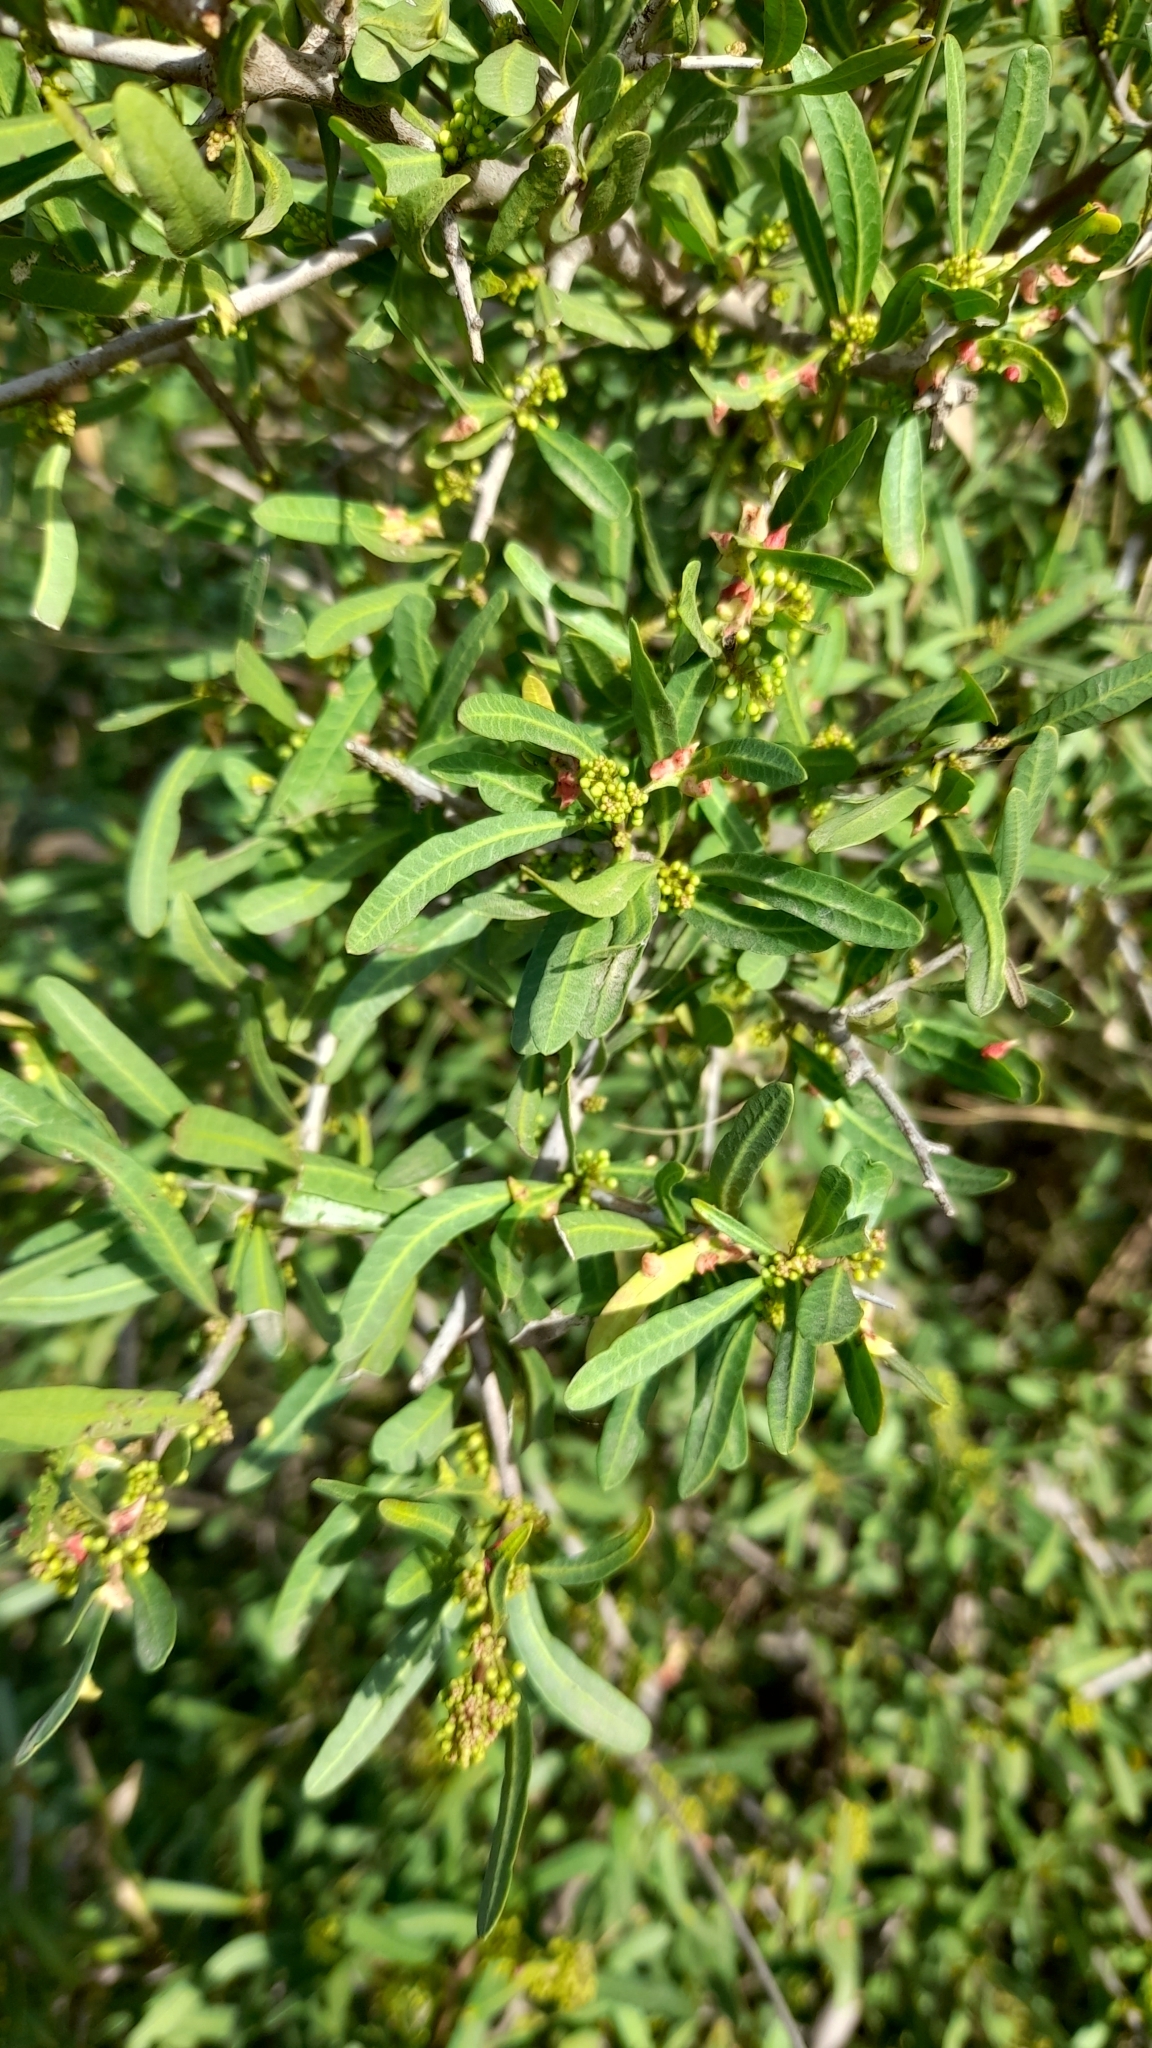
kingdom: Plantae
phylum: Tracheophyta
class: Magnoliopsida
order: Sapindales
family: Anacardiaceae
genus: Schinus
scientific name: Schinus longifolia
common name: Longleaf peppertree
